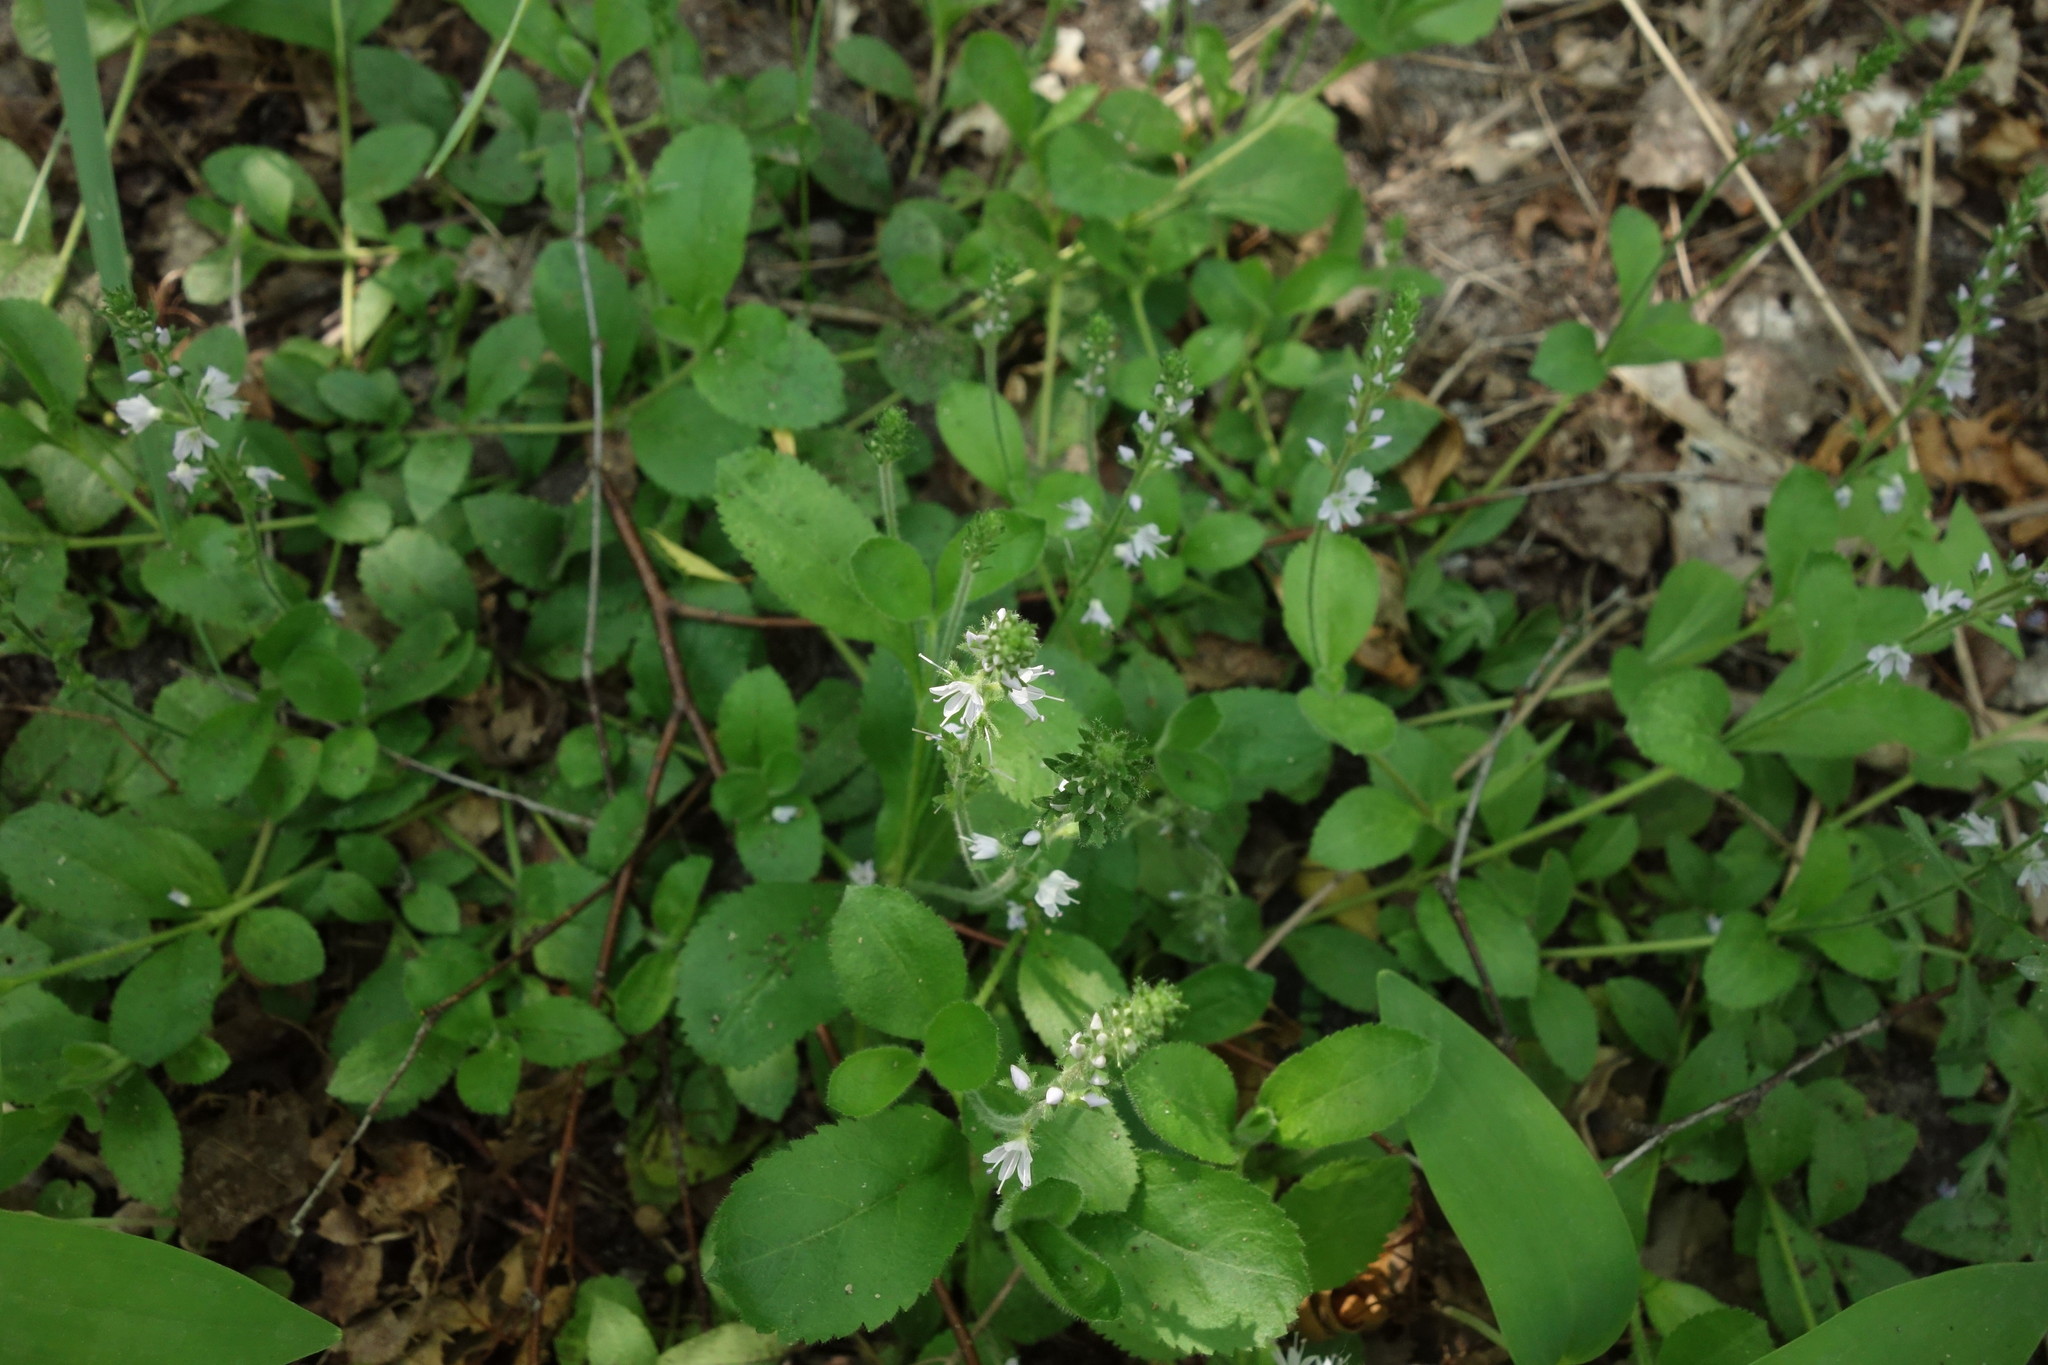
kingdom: Plantae
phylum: Tracheophyta
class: Magnoliopsida
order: Lamiales
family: Plantaginaceae
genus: Veronica
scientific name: Veronica officinalis
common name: Common speedwell
